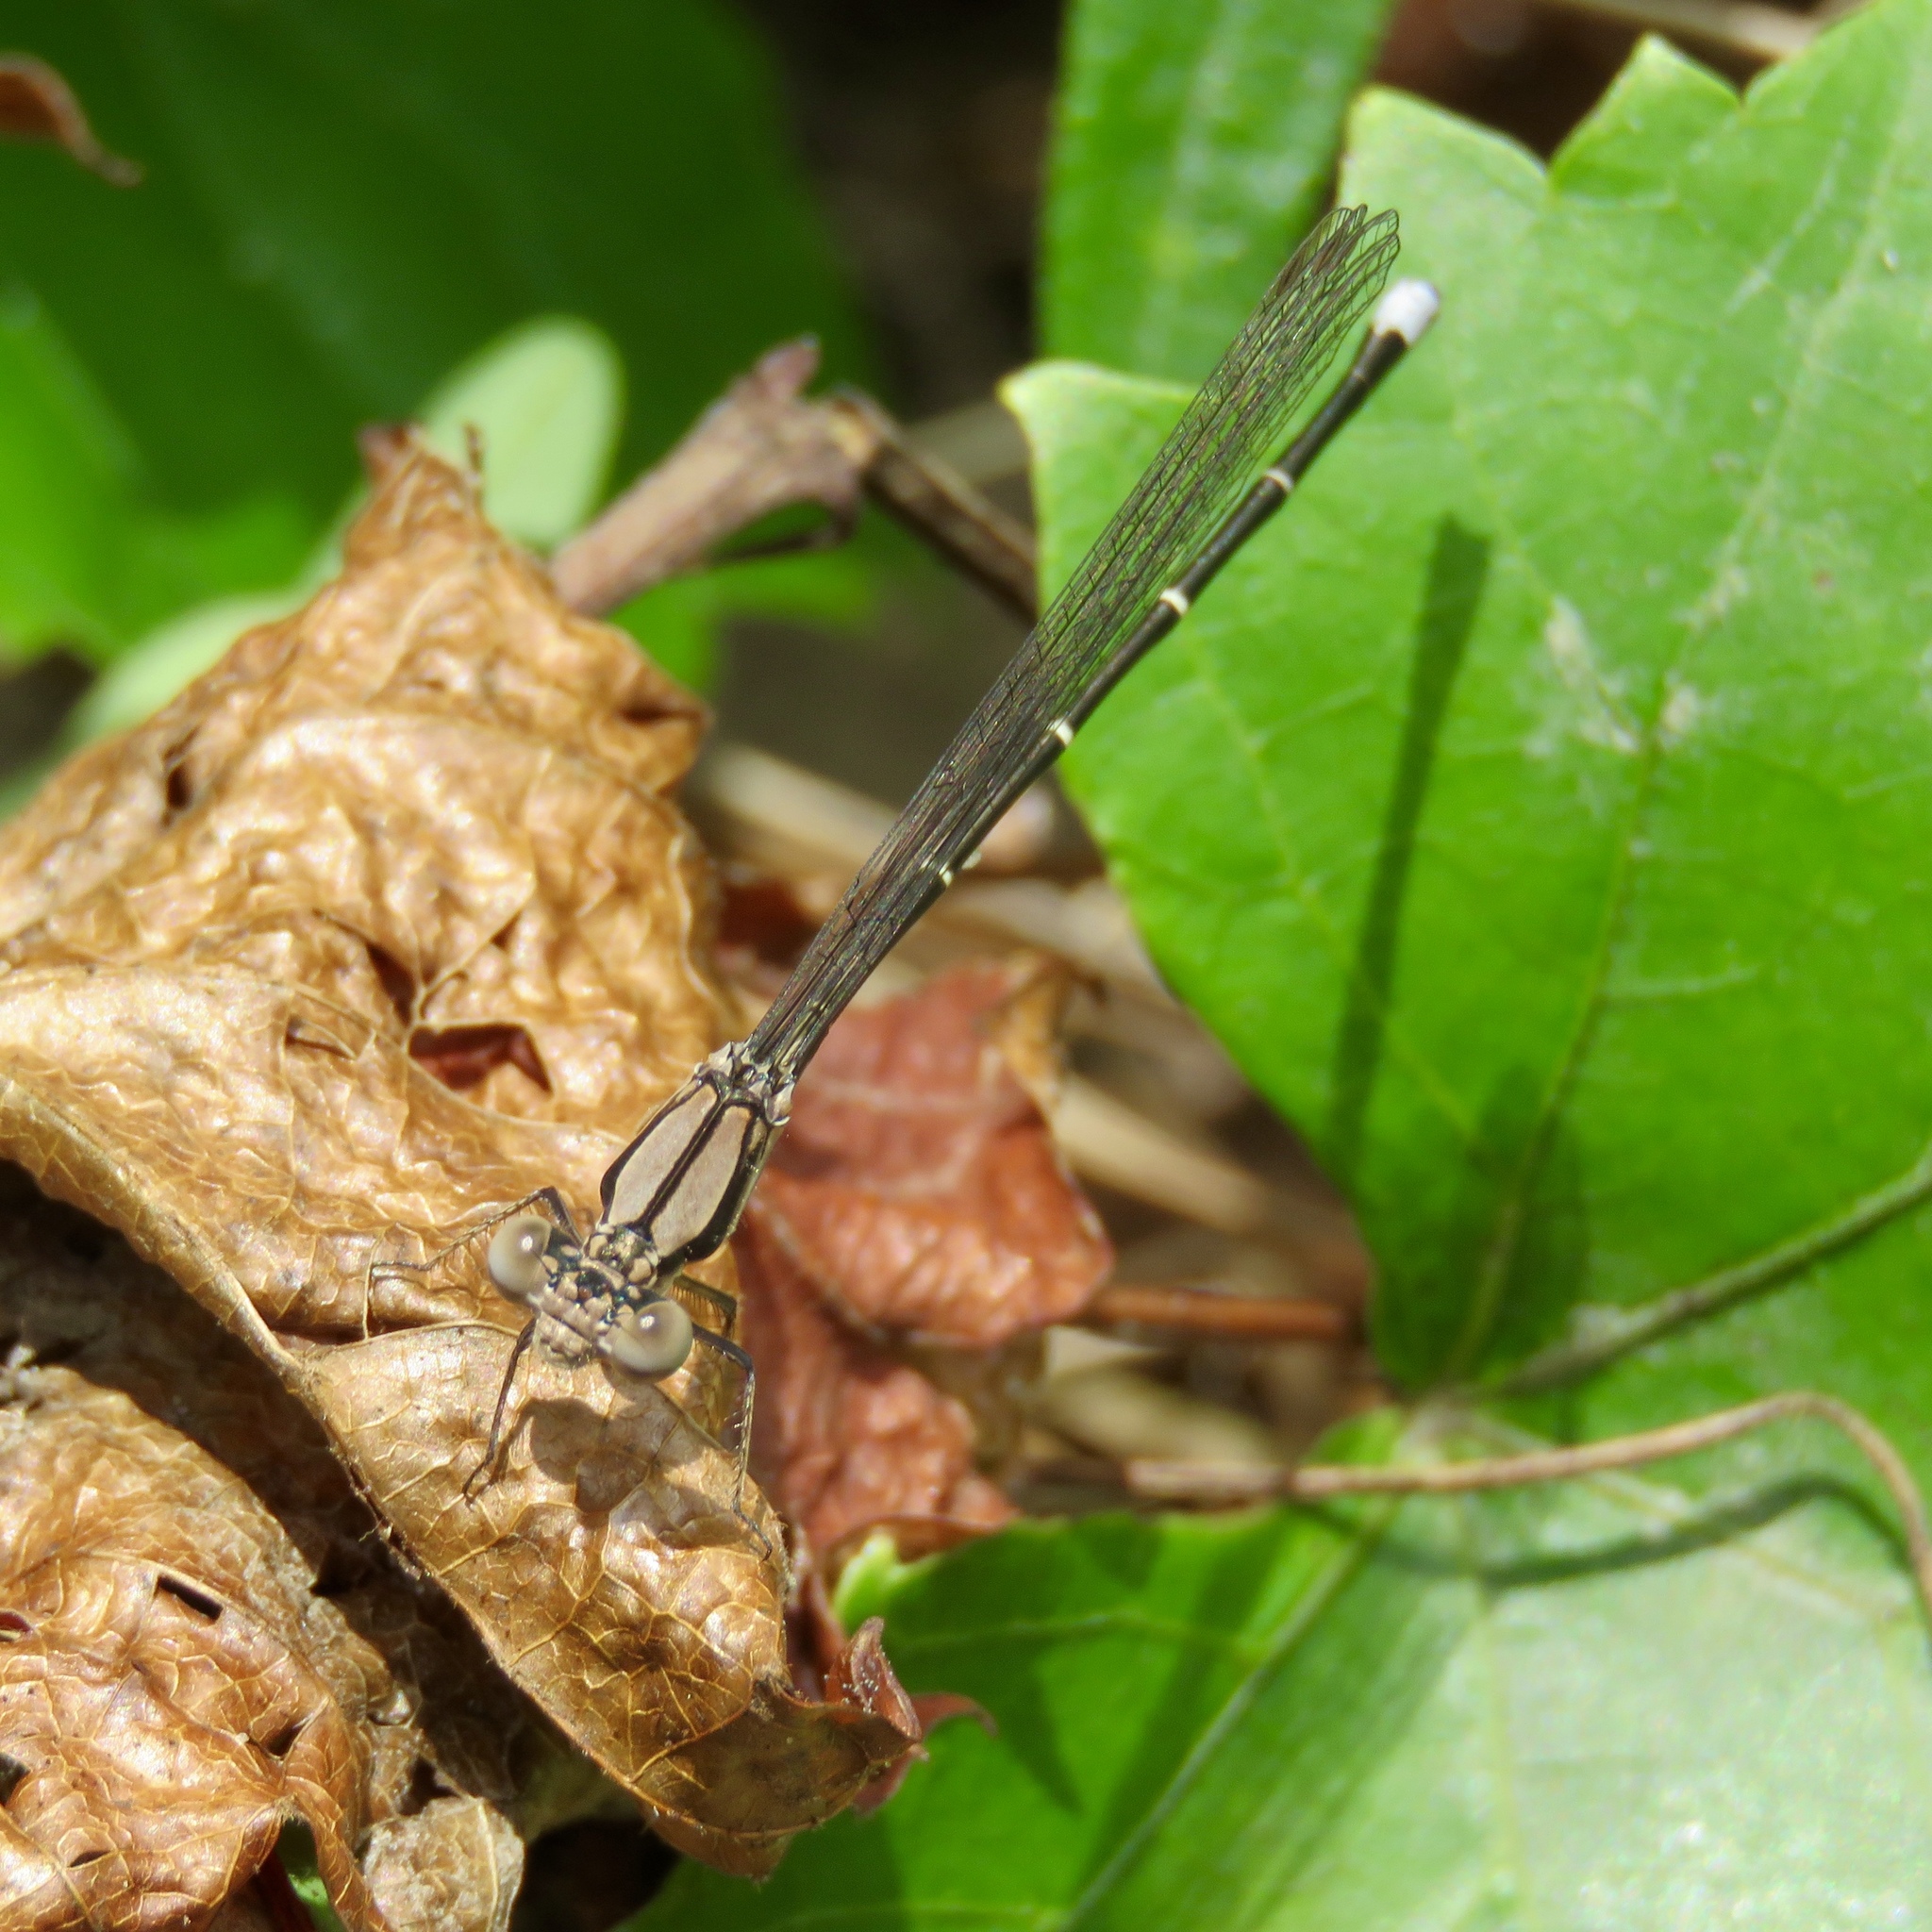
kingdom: Animalia
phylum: Arthropoda
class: Insecta
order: Odonata
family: Coenagrionidae
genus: Argia
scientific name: Argia tibialis
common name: Blue-tipped dancer
